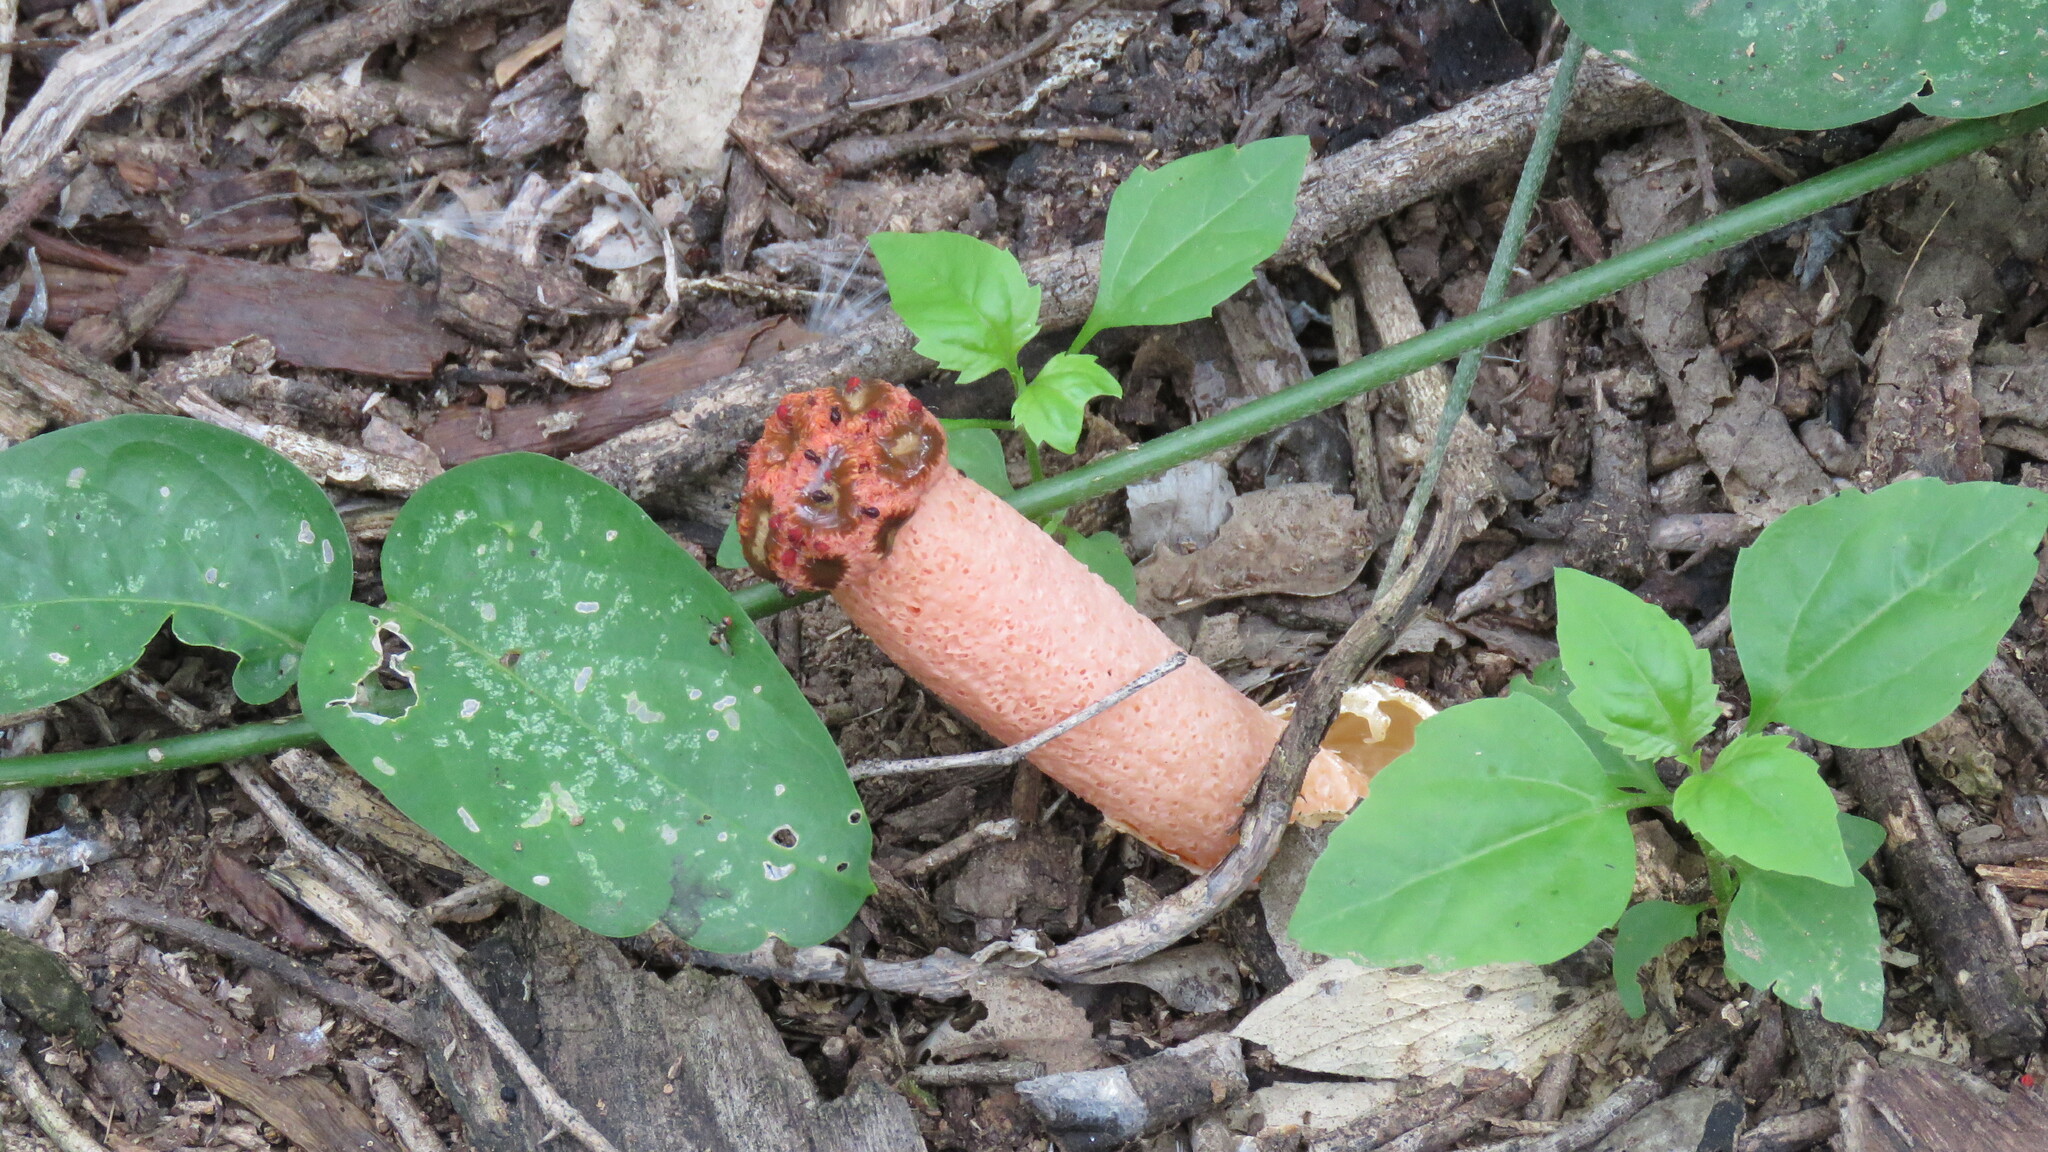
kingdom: Fungi
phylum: Basidiomycota
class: Agaricomycetes
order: Phallales
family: Phallaceae
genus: Lysurus
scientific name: Lysurus periphragmoides
